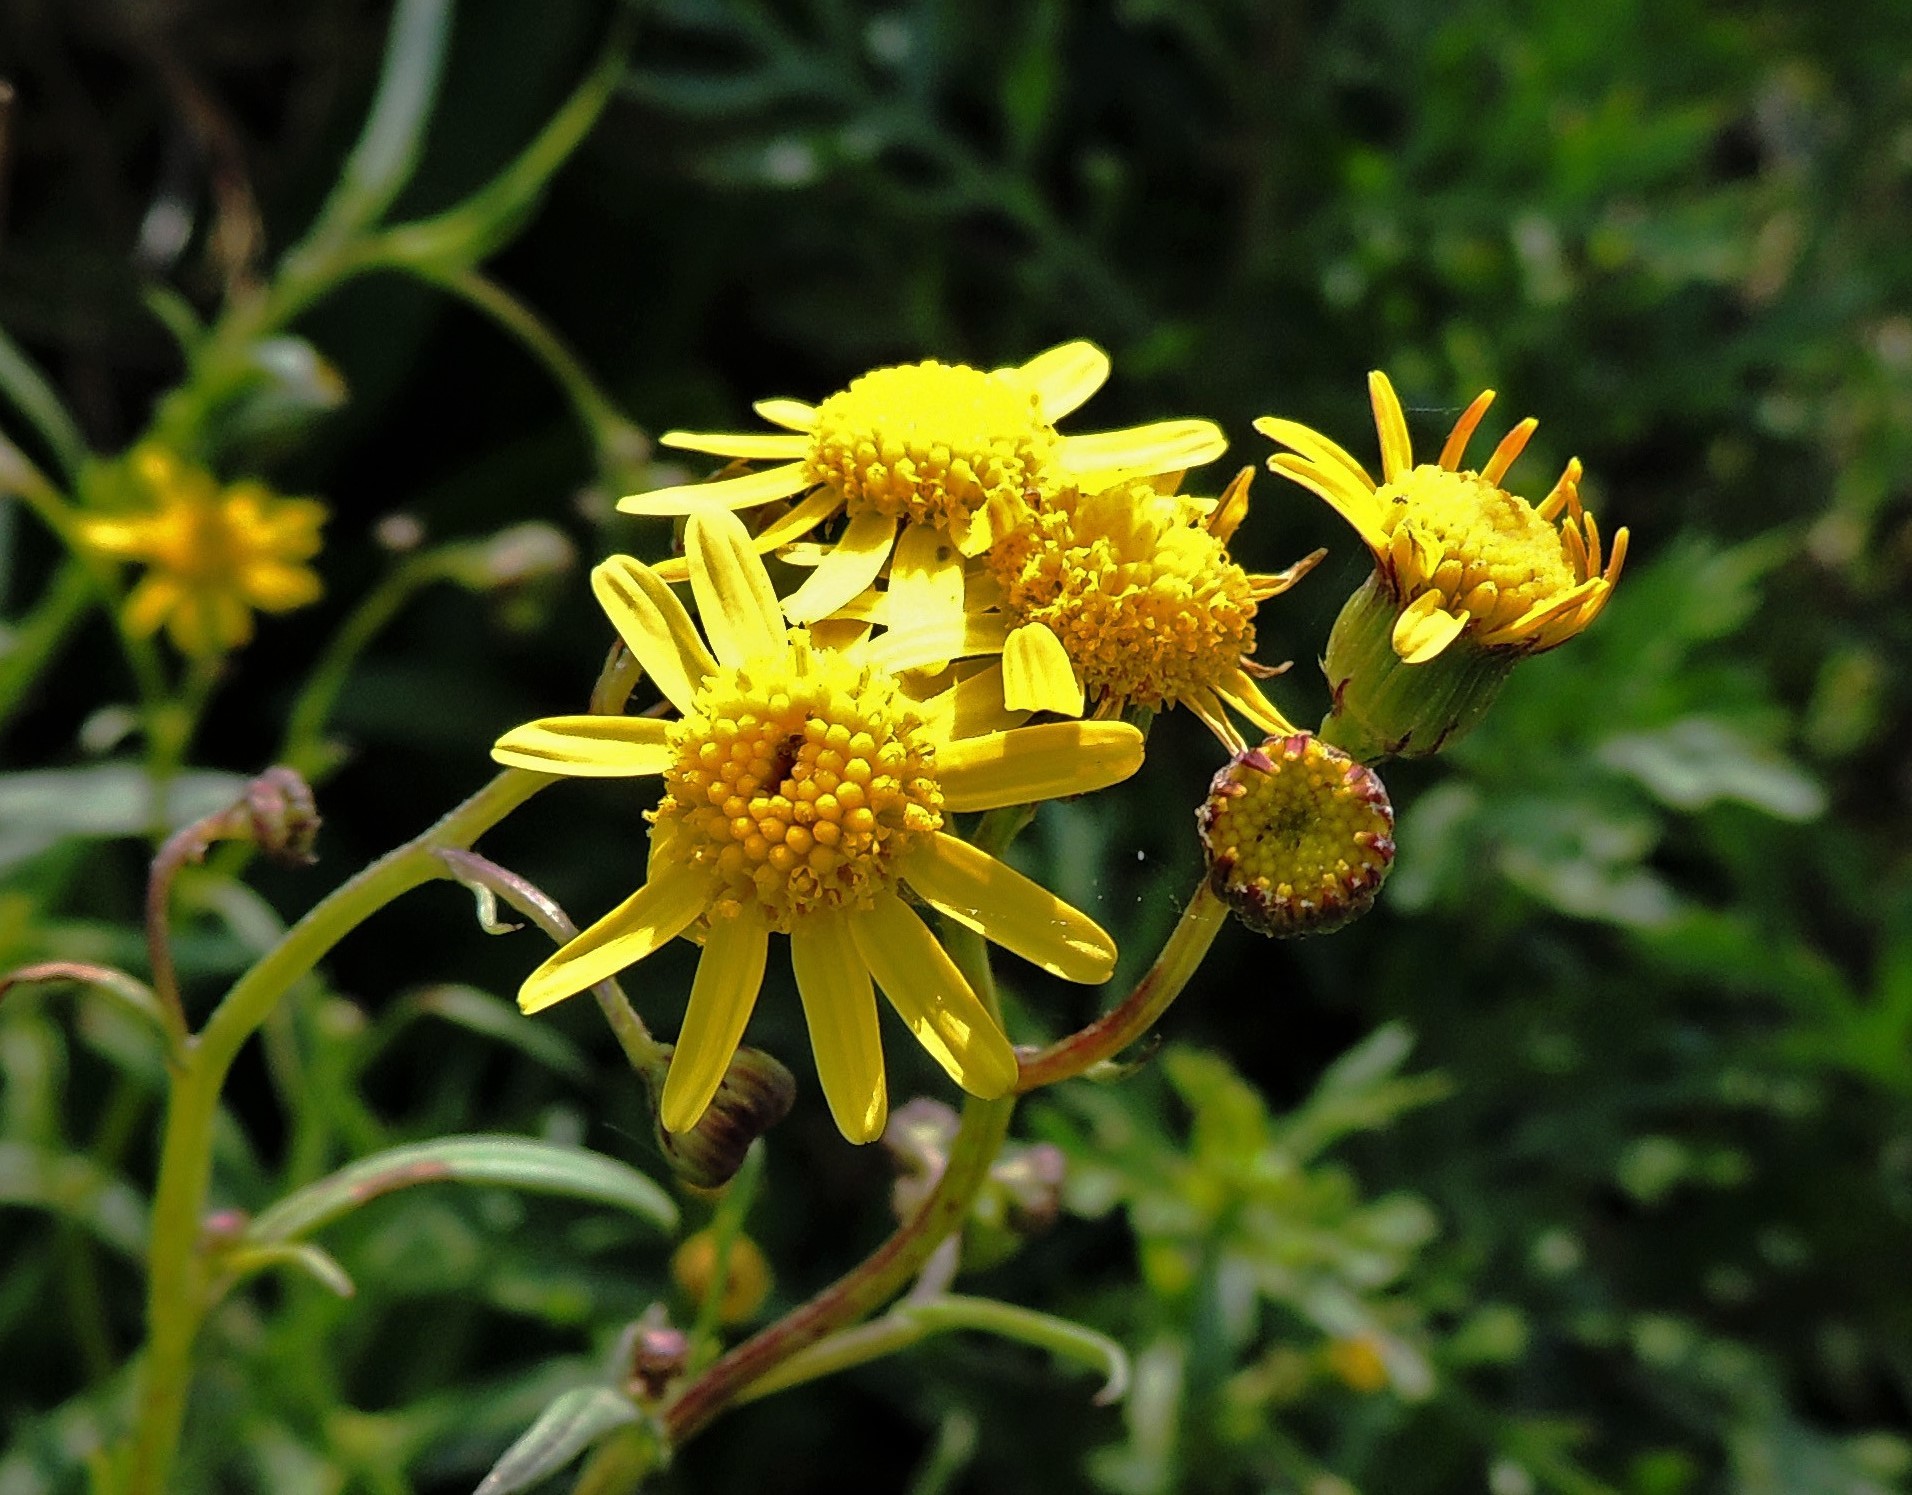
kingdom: Plantae
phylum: Tracheophyta
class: Magnoliopsida
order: Asterales
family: Asteraceae
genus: Senecio
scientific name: Senecio madagascariensis
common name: Madagascar ragwort
